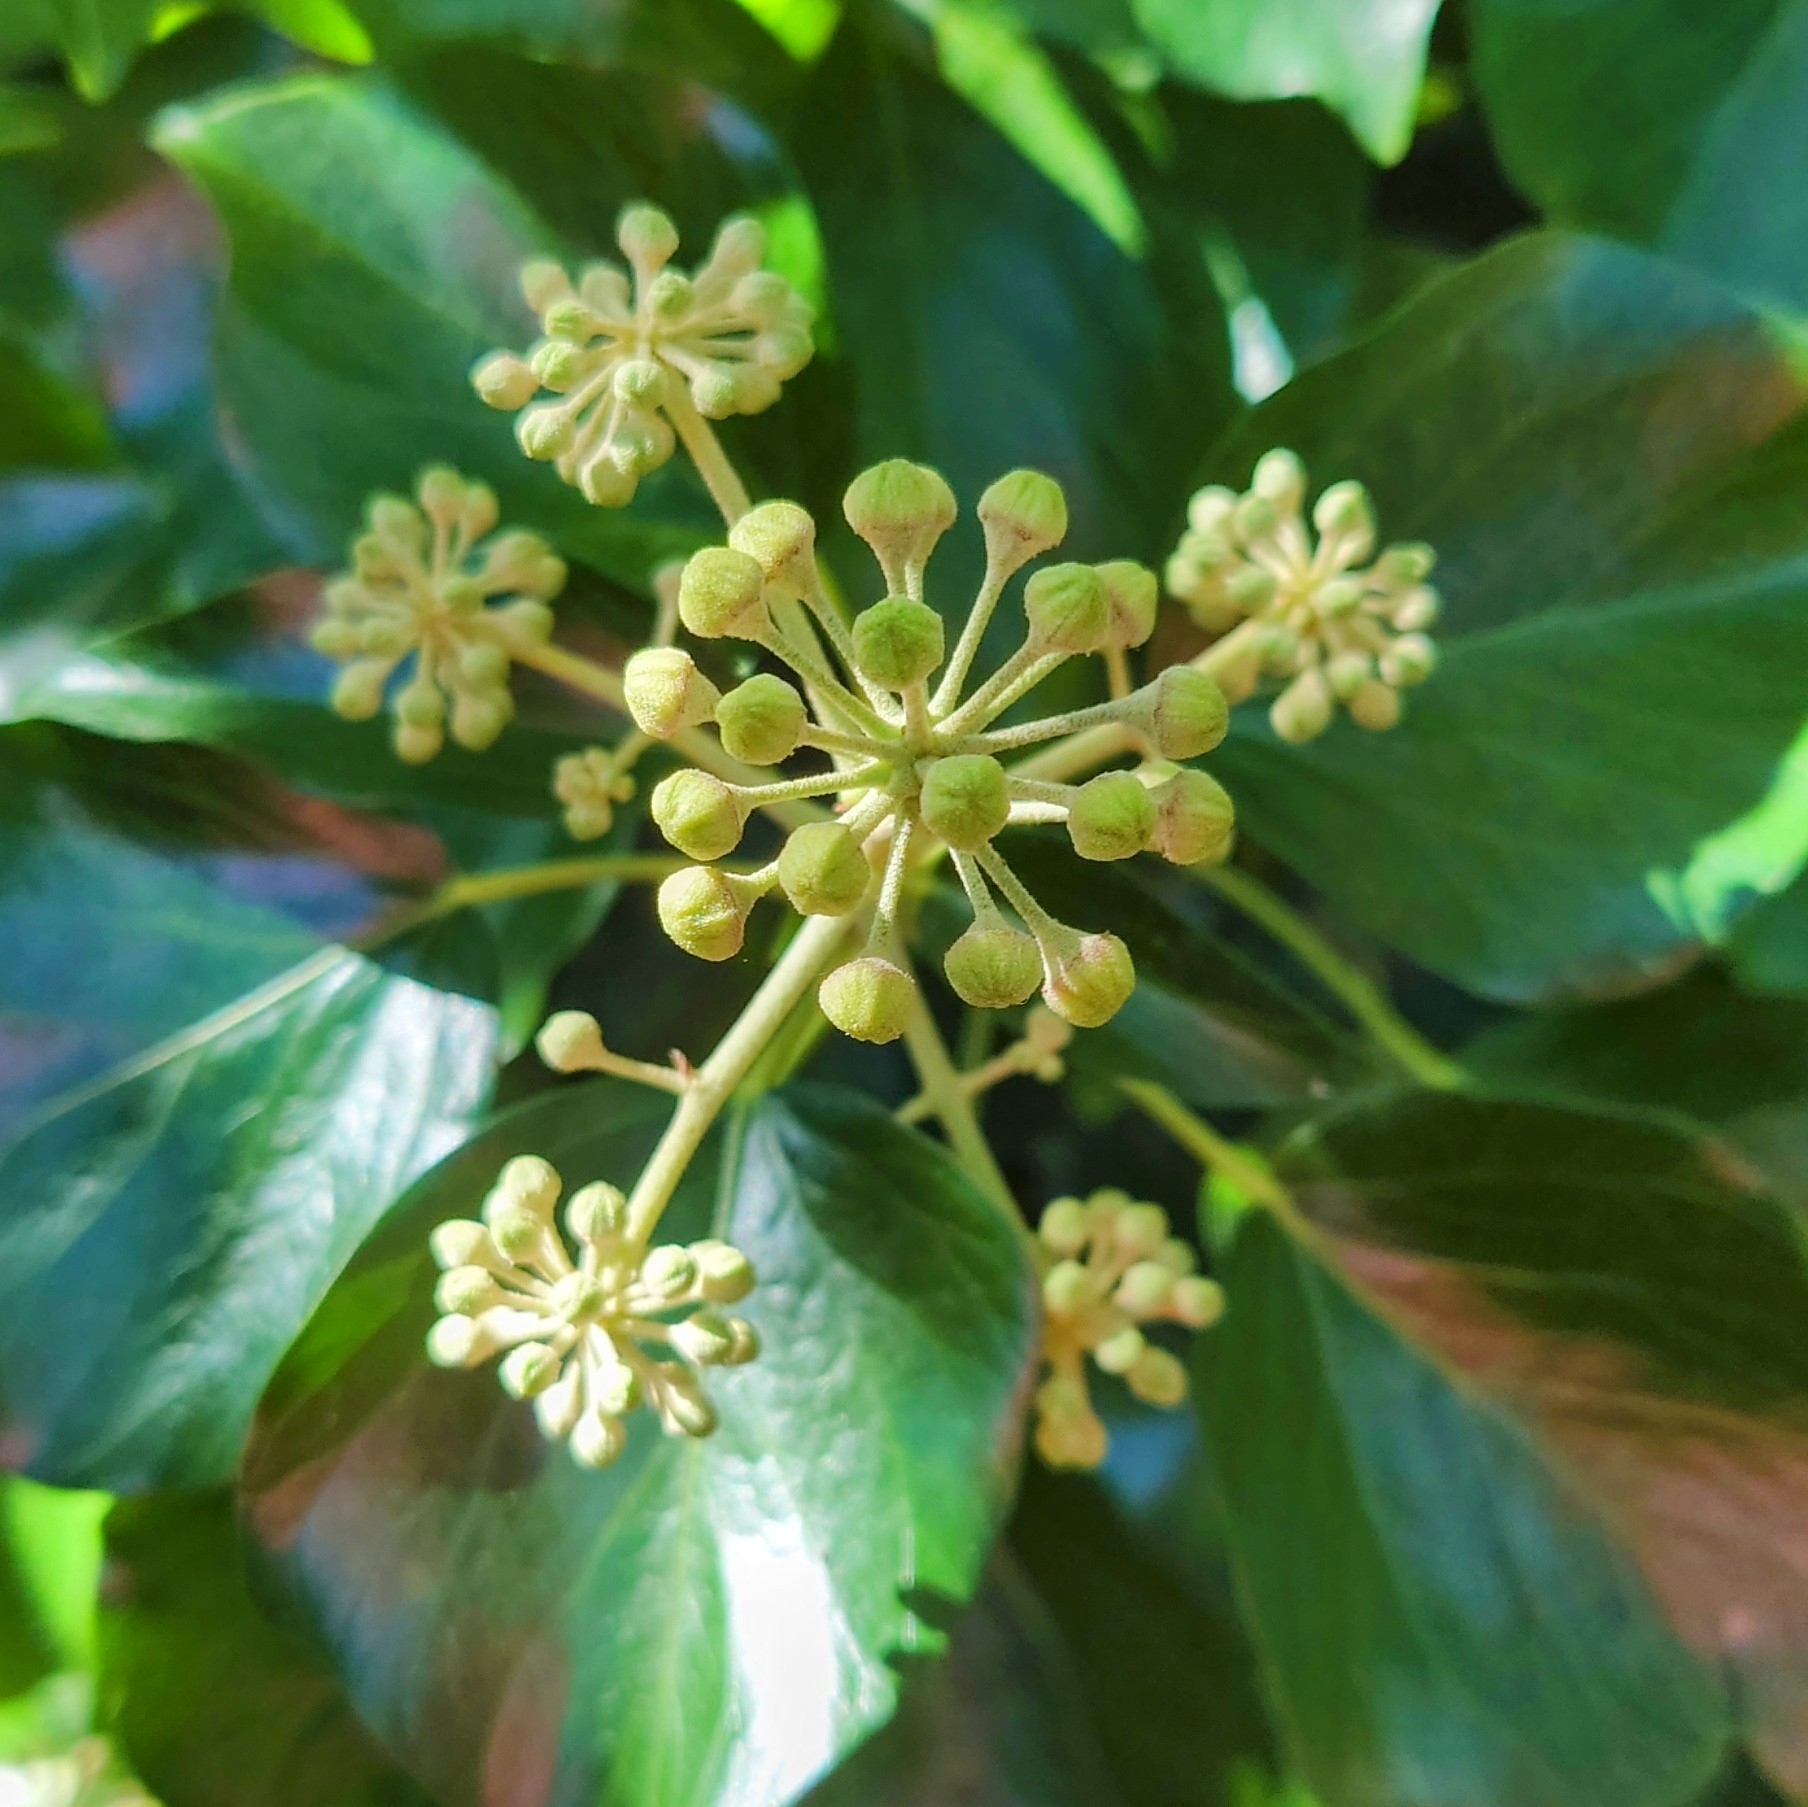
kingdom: Plantae
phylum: Tracheophyta
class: Magnoliopsida
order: Apiales
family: Araliaceae
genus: Hedera
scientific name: Hedera helix
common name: Ivy
